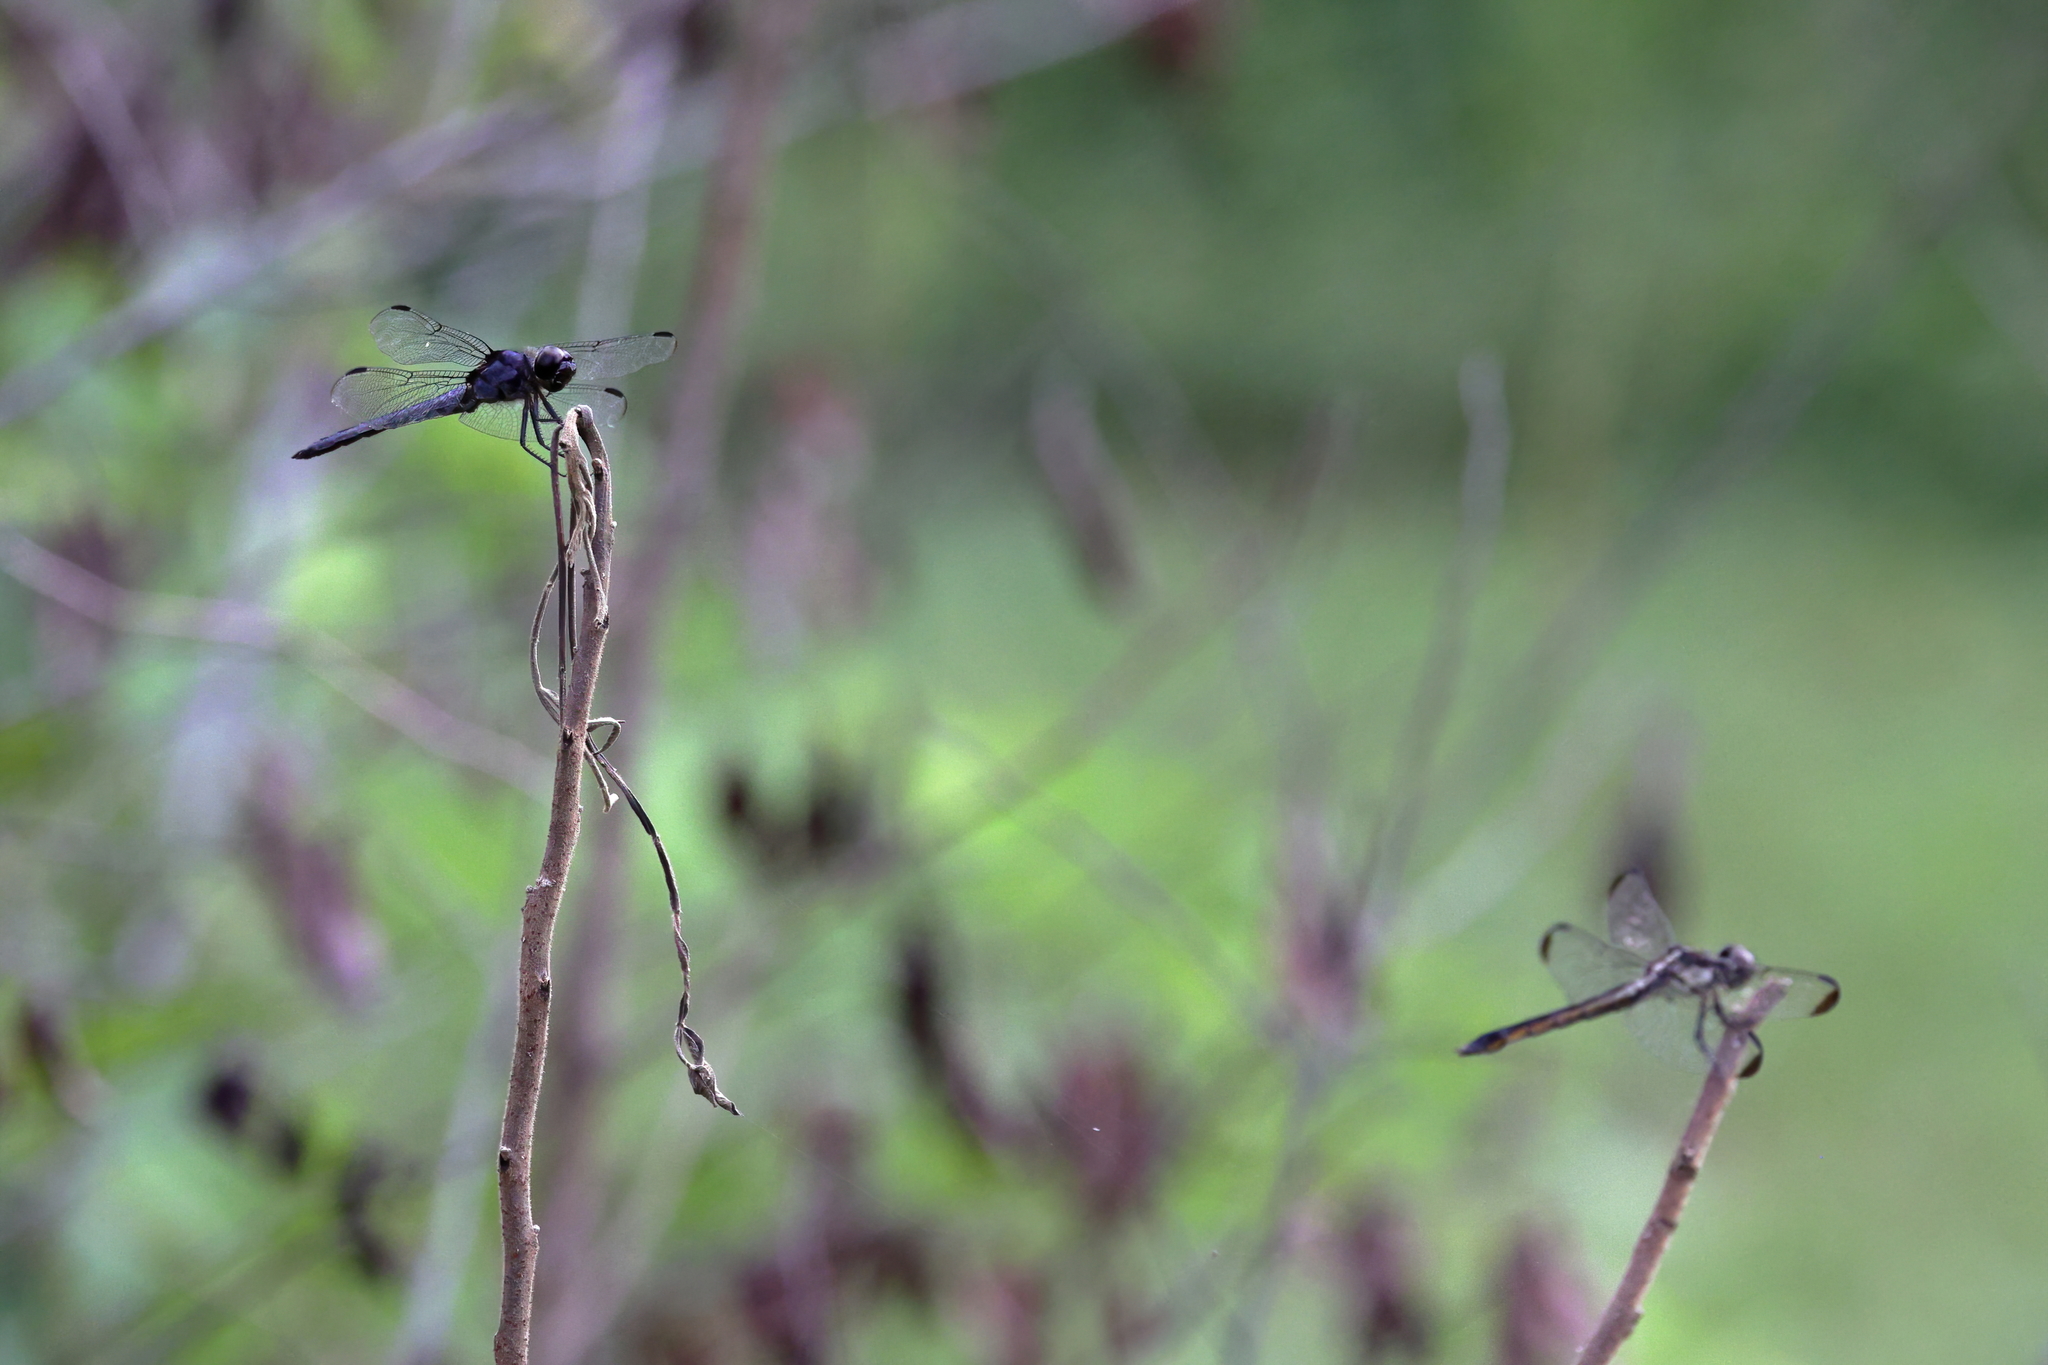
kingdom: Animalia
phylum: Arthropoda
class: Insecta
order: Odonata
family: Libellulidae
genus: Libellula
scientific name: Libellula incesta
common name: Slaty skimmer
